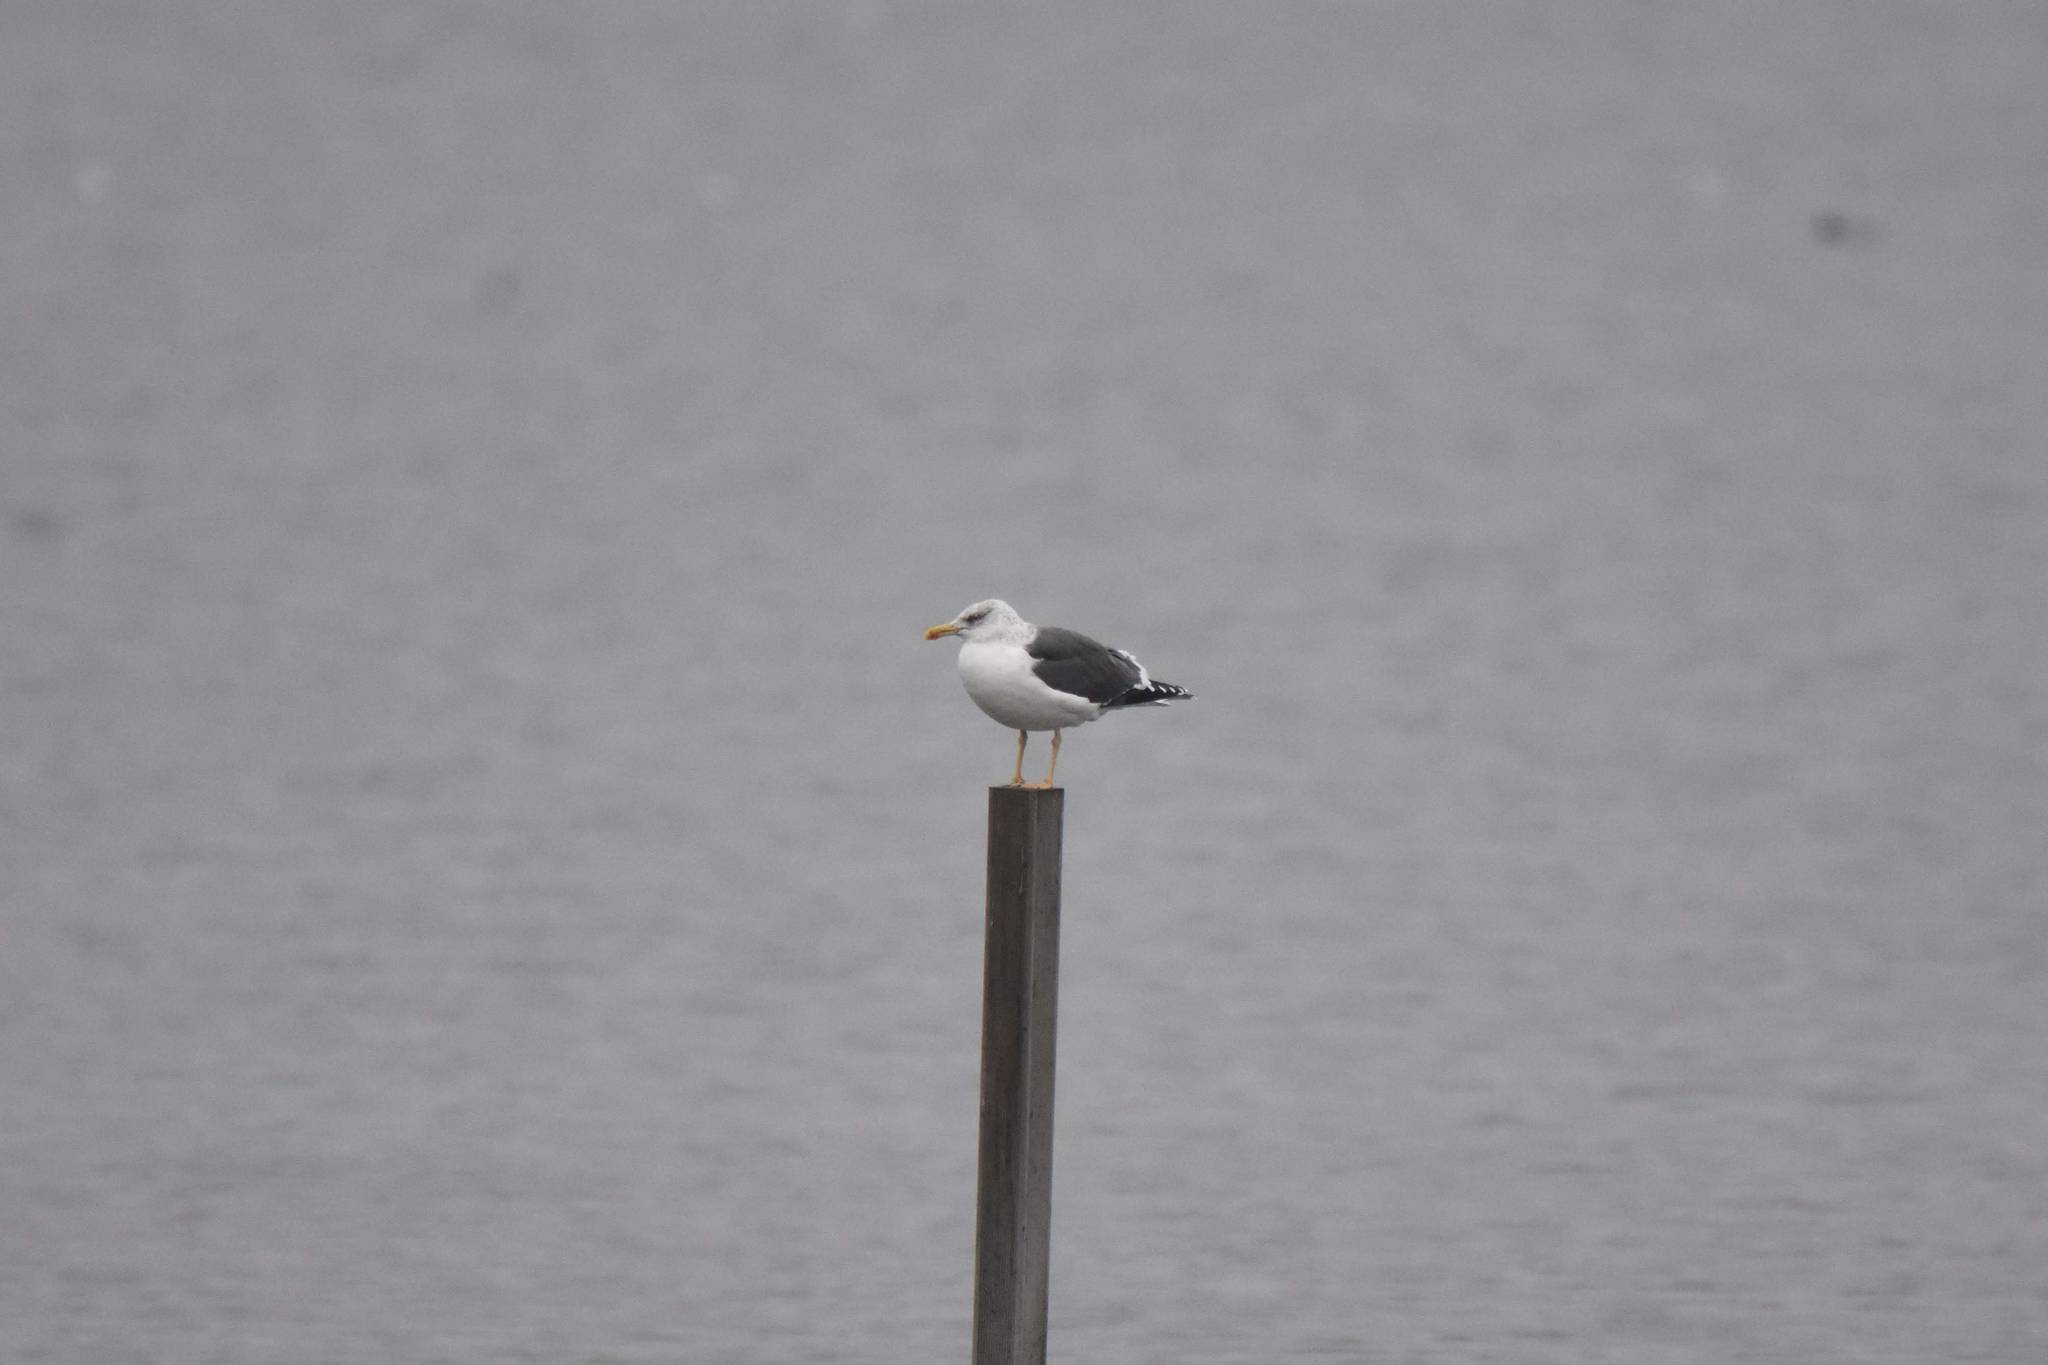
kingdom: Animalia
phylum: Chordata
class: Aves
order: Charadriiformes
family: Laridae
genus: Larus
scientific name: Larus fuscus
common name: Lesser black-backed gull
